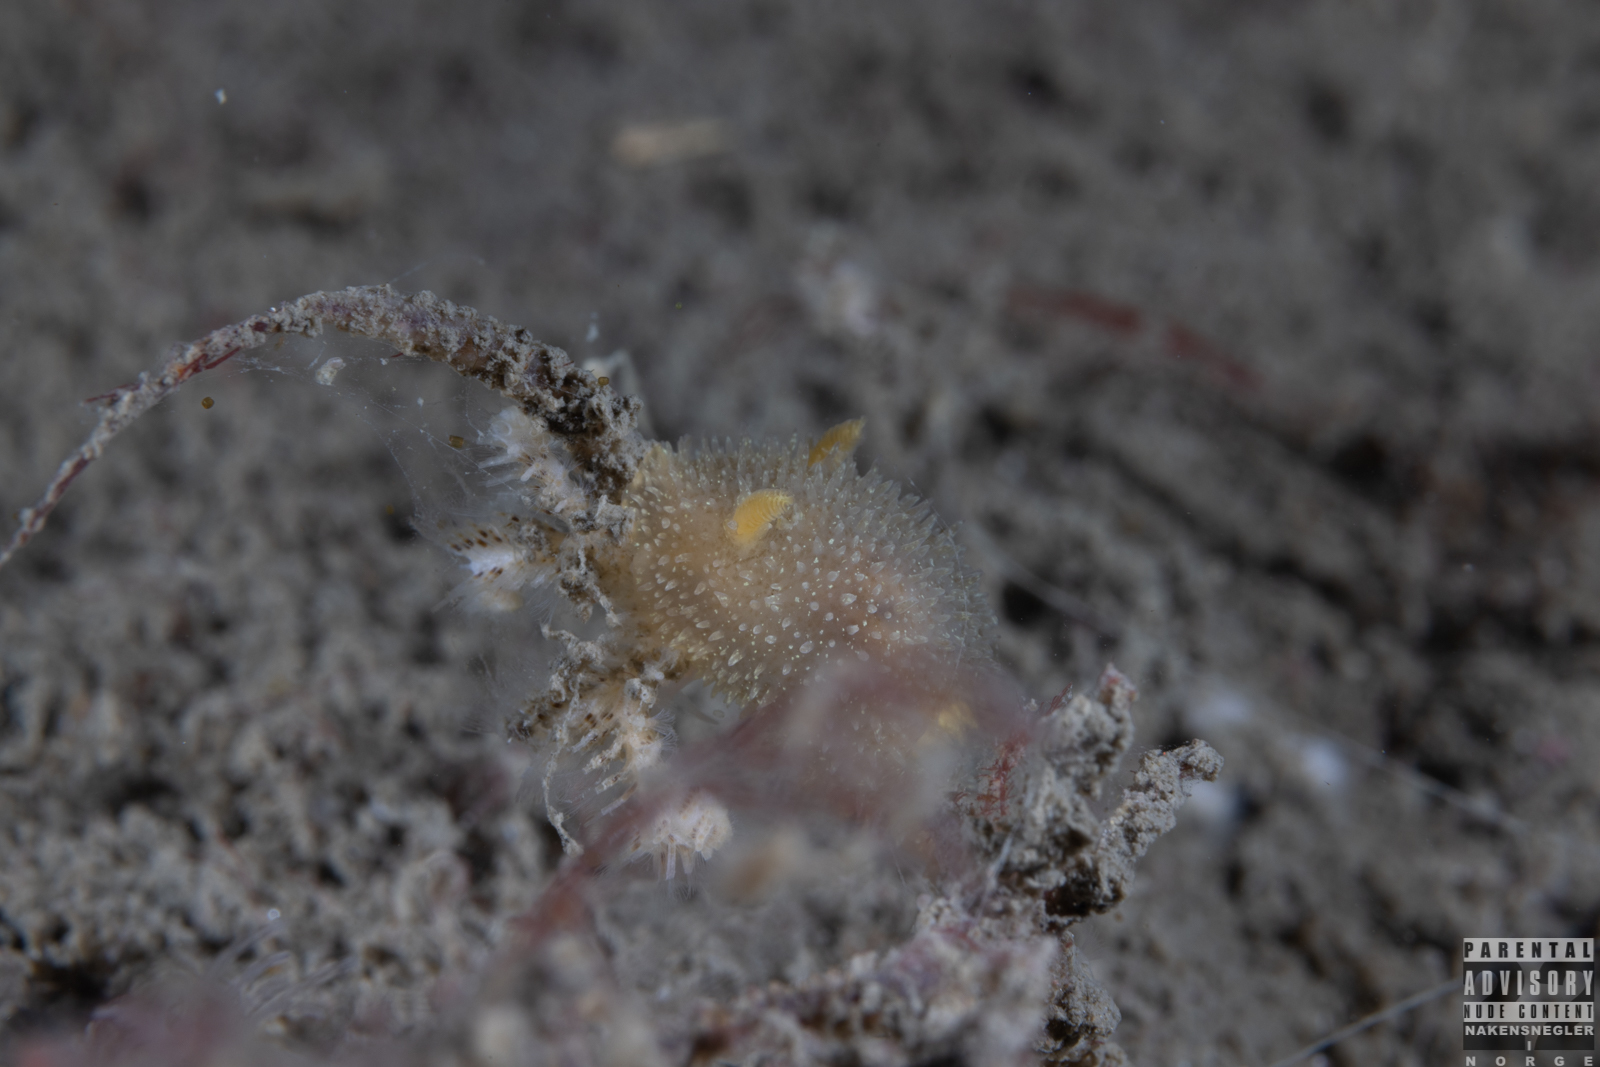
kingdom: Animalia
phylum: Mollusca
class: Gastropoda
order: Nudibranchia
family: Onchidorididae
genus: Acanthodoris
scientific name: Acanthodoris pilosa
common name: Hairy spiny doris
